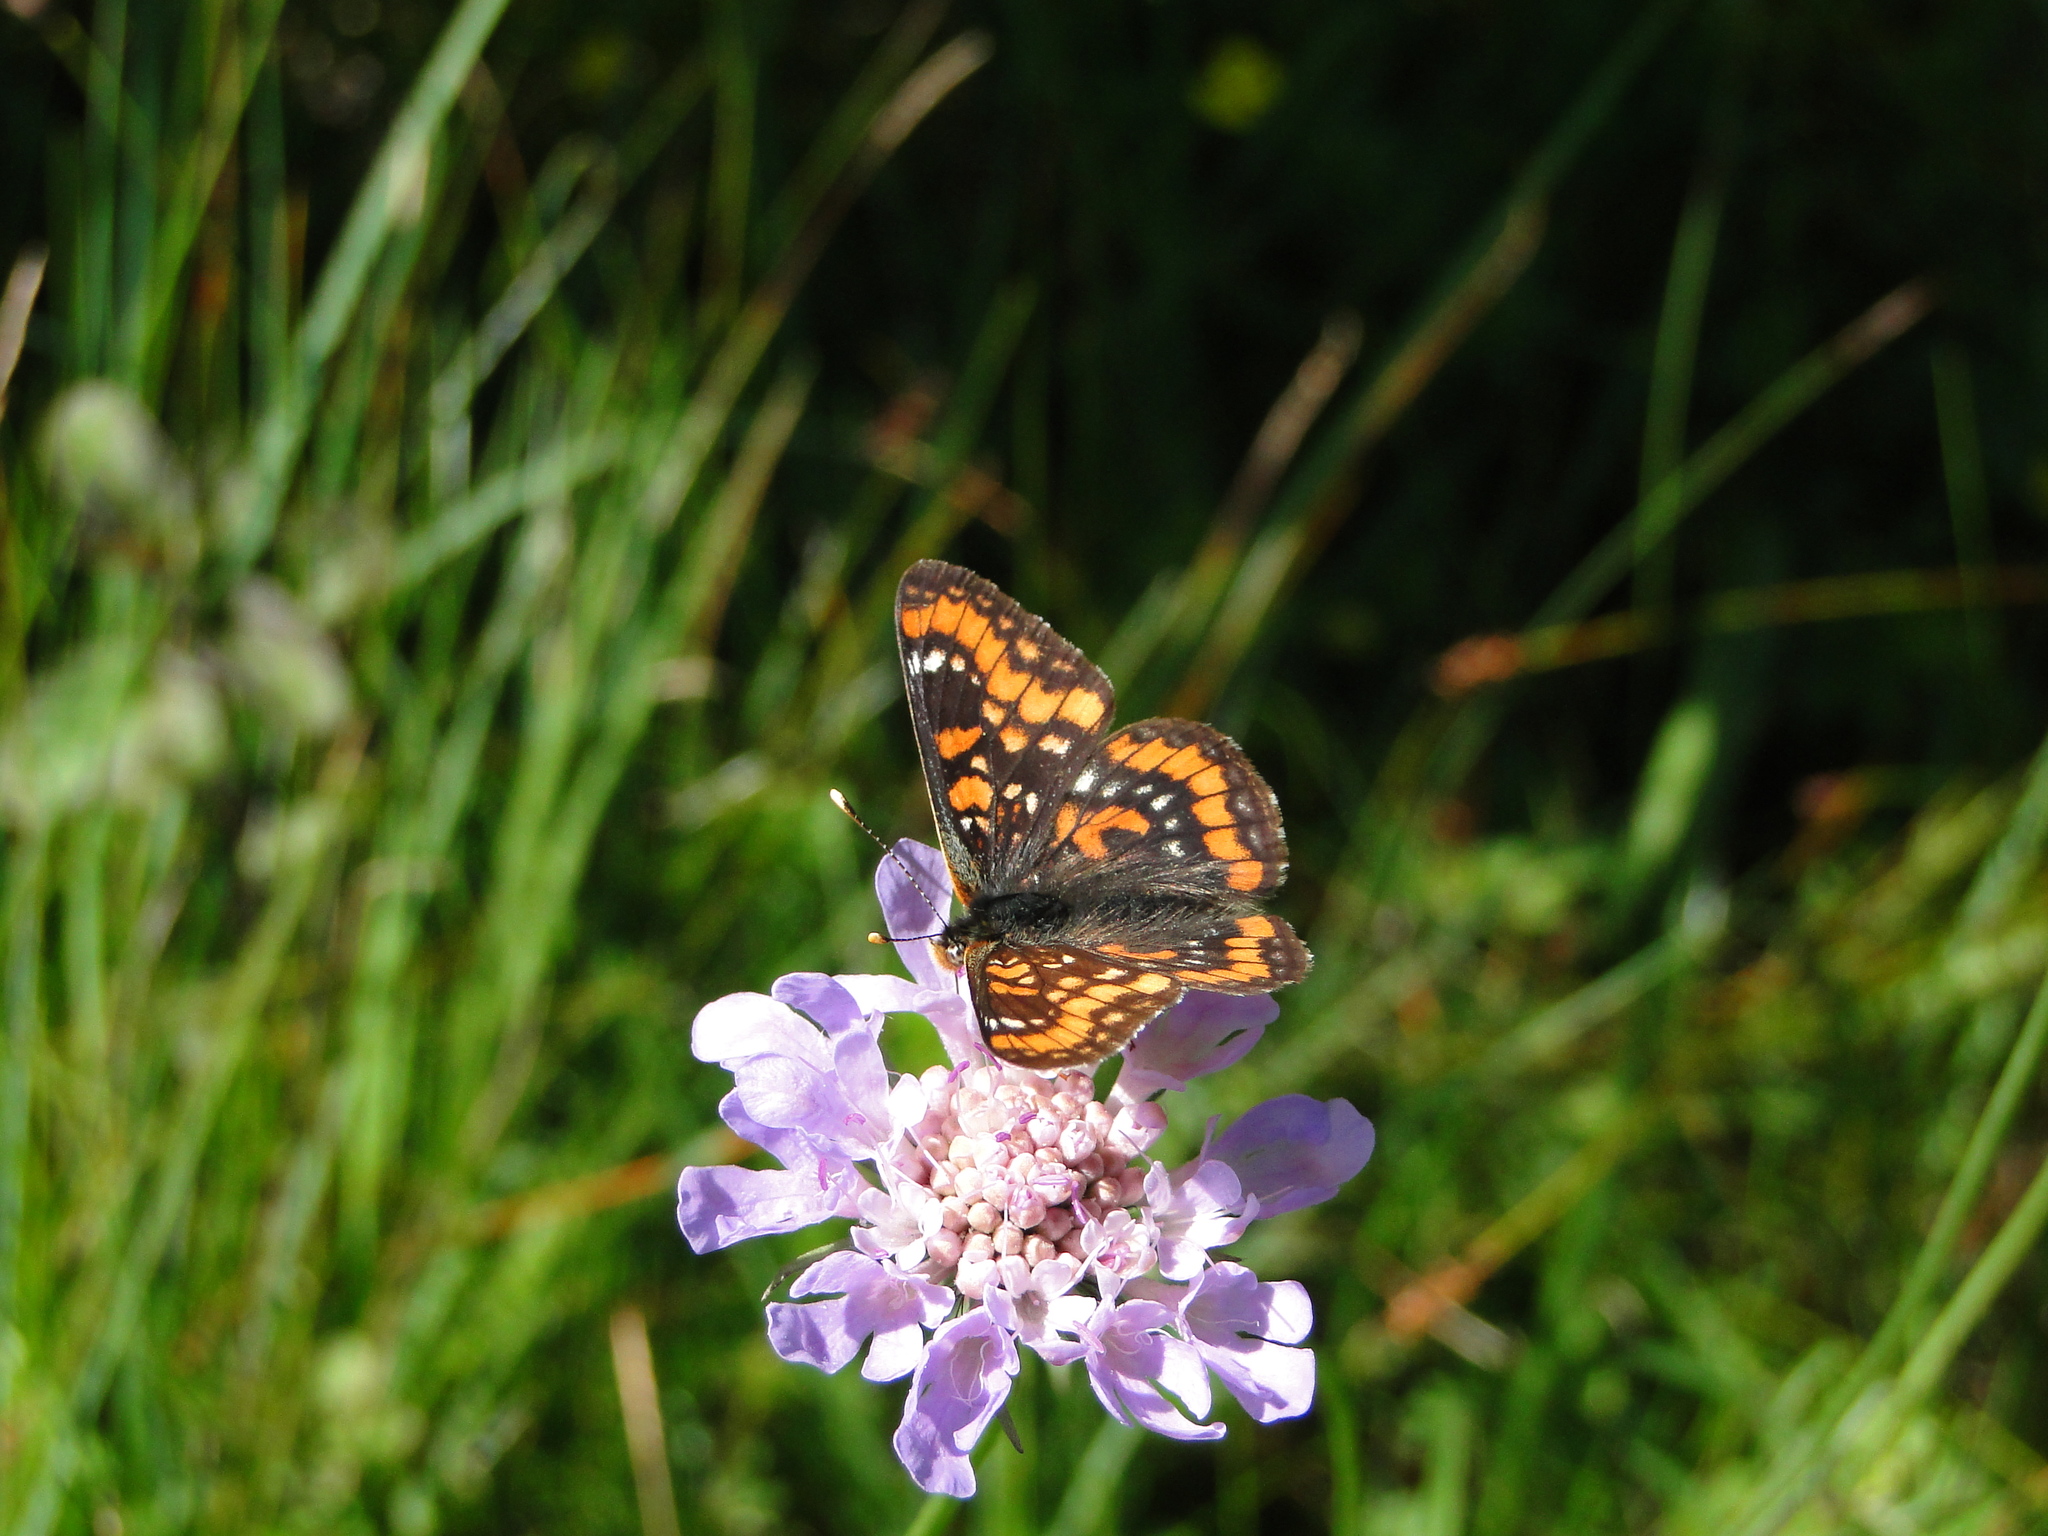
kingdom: Animalia
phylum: Arthropoda
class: Insecta
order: Lepidoptera
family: Nymphalidae
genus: Euphydryas
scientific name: Euphydryas maturna
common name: Scarce fritillary
